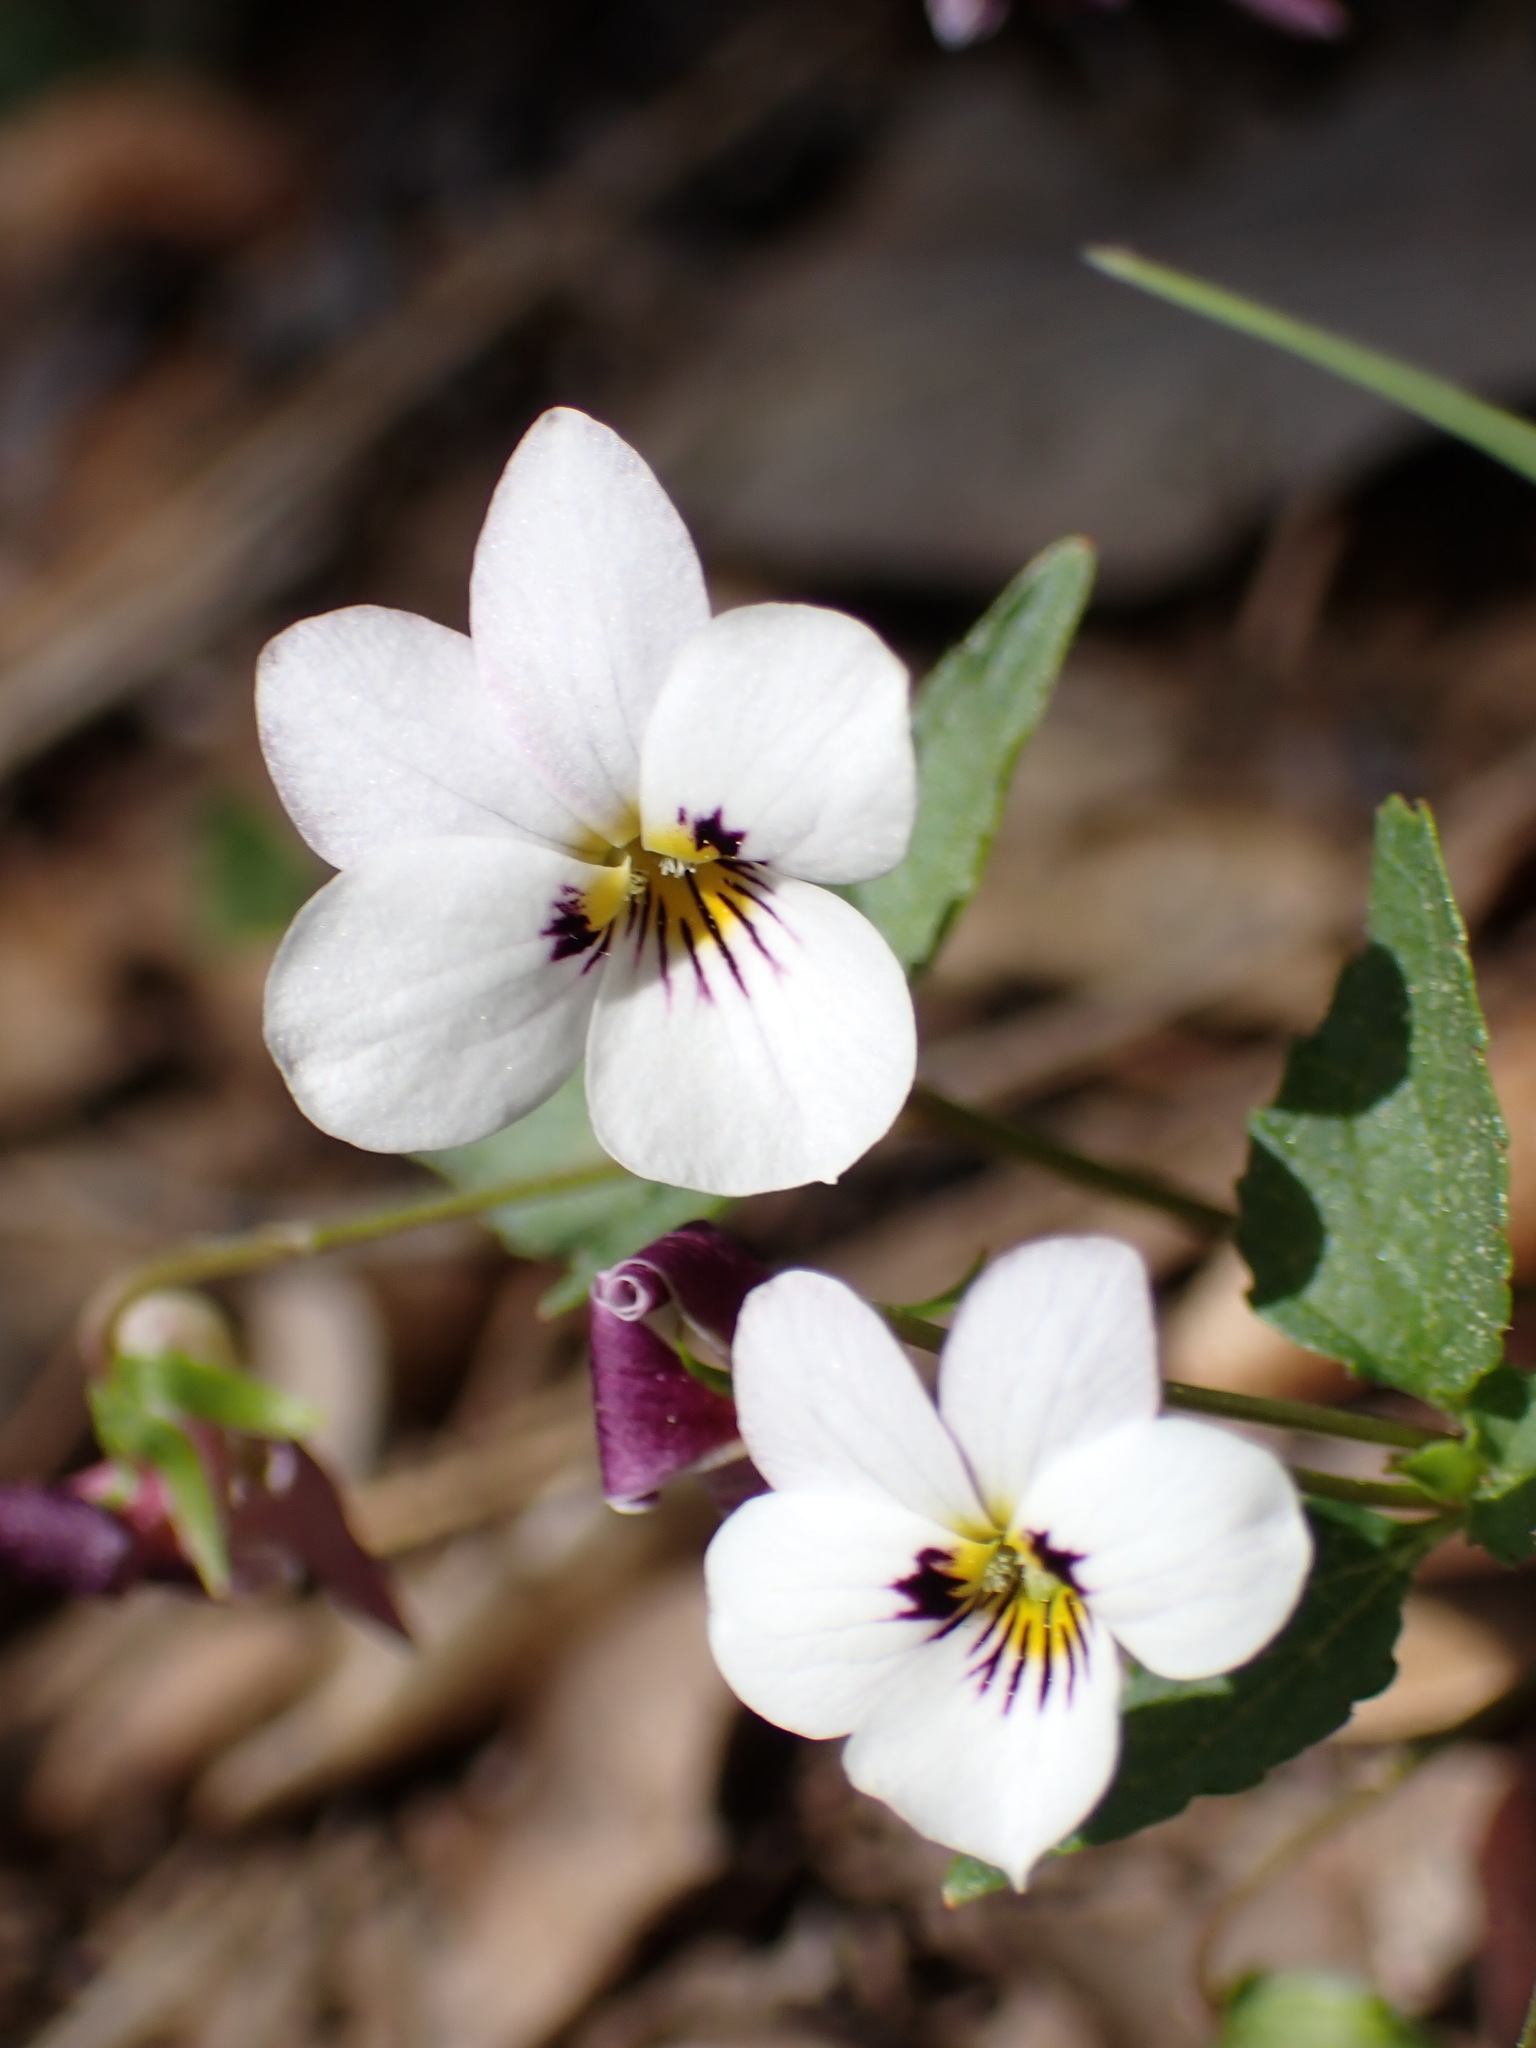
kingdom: Plantae
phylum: Tracheophyta
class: Magnoliopsida
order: Malpighiales
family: Violaceae
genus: Viola
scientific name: Viola ocellata
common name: Western heart's ease
